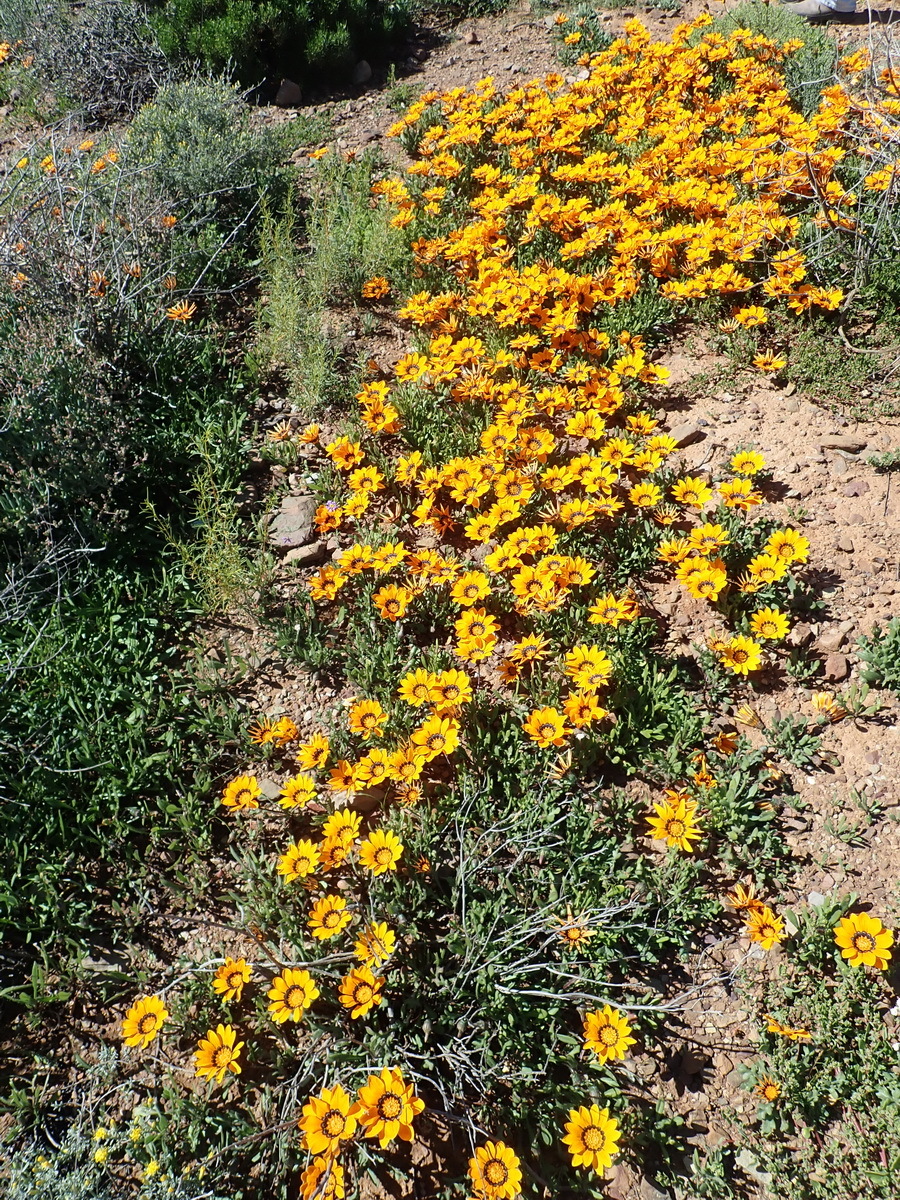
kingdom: Plantae
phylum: Tracheophyta
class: Magnoliopsida
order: Asterales
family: Asteraceae
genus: Gazania
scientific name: Gazania krebsiana
